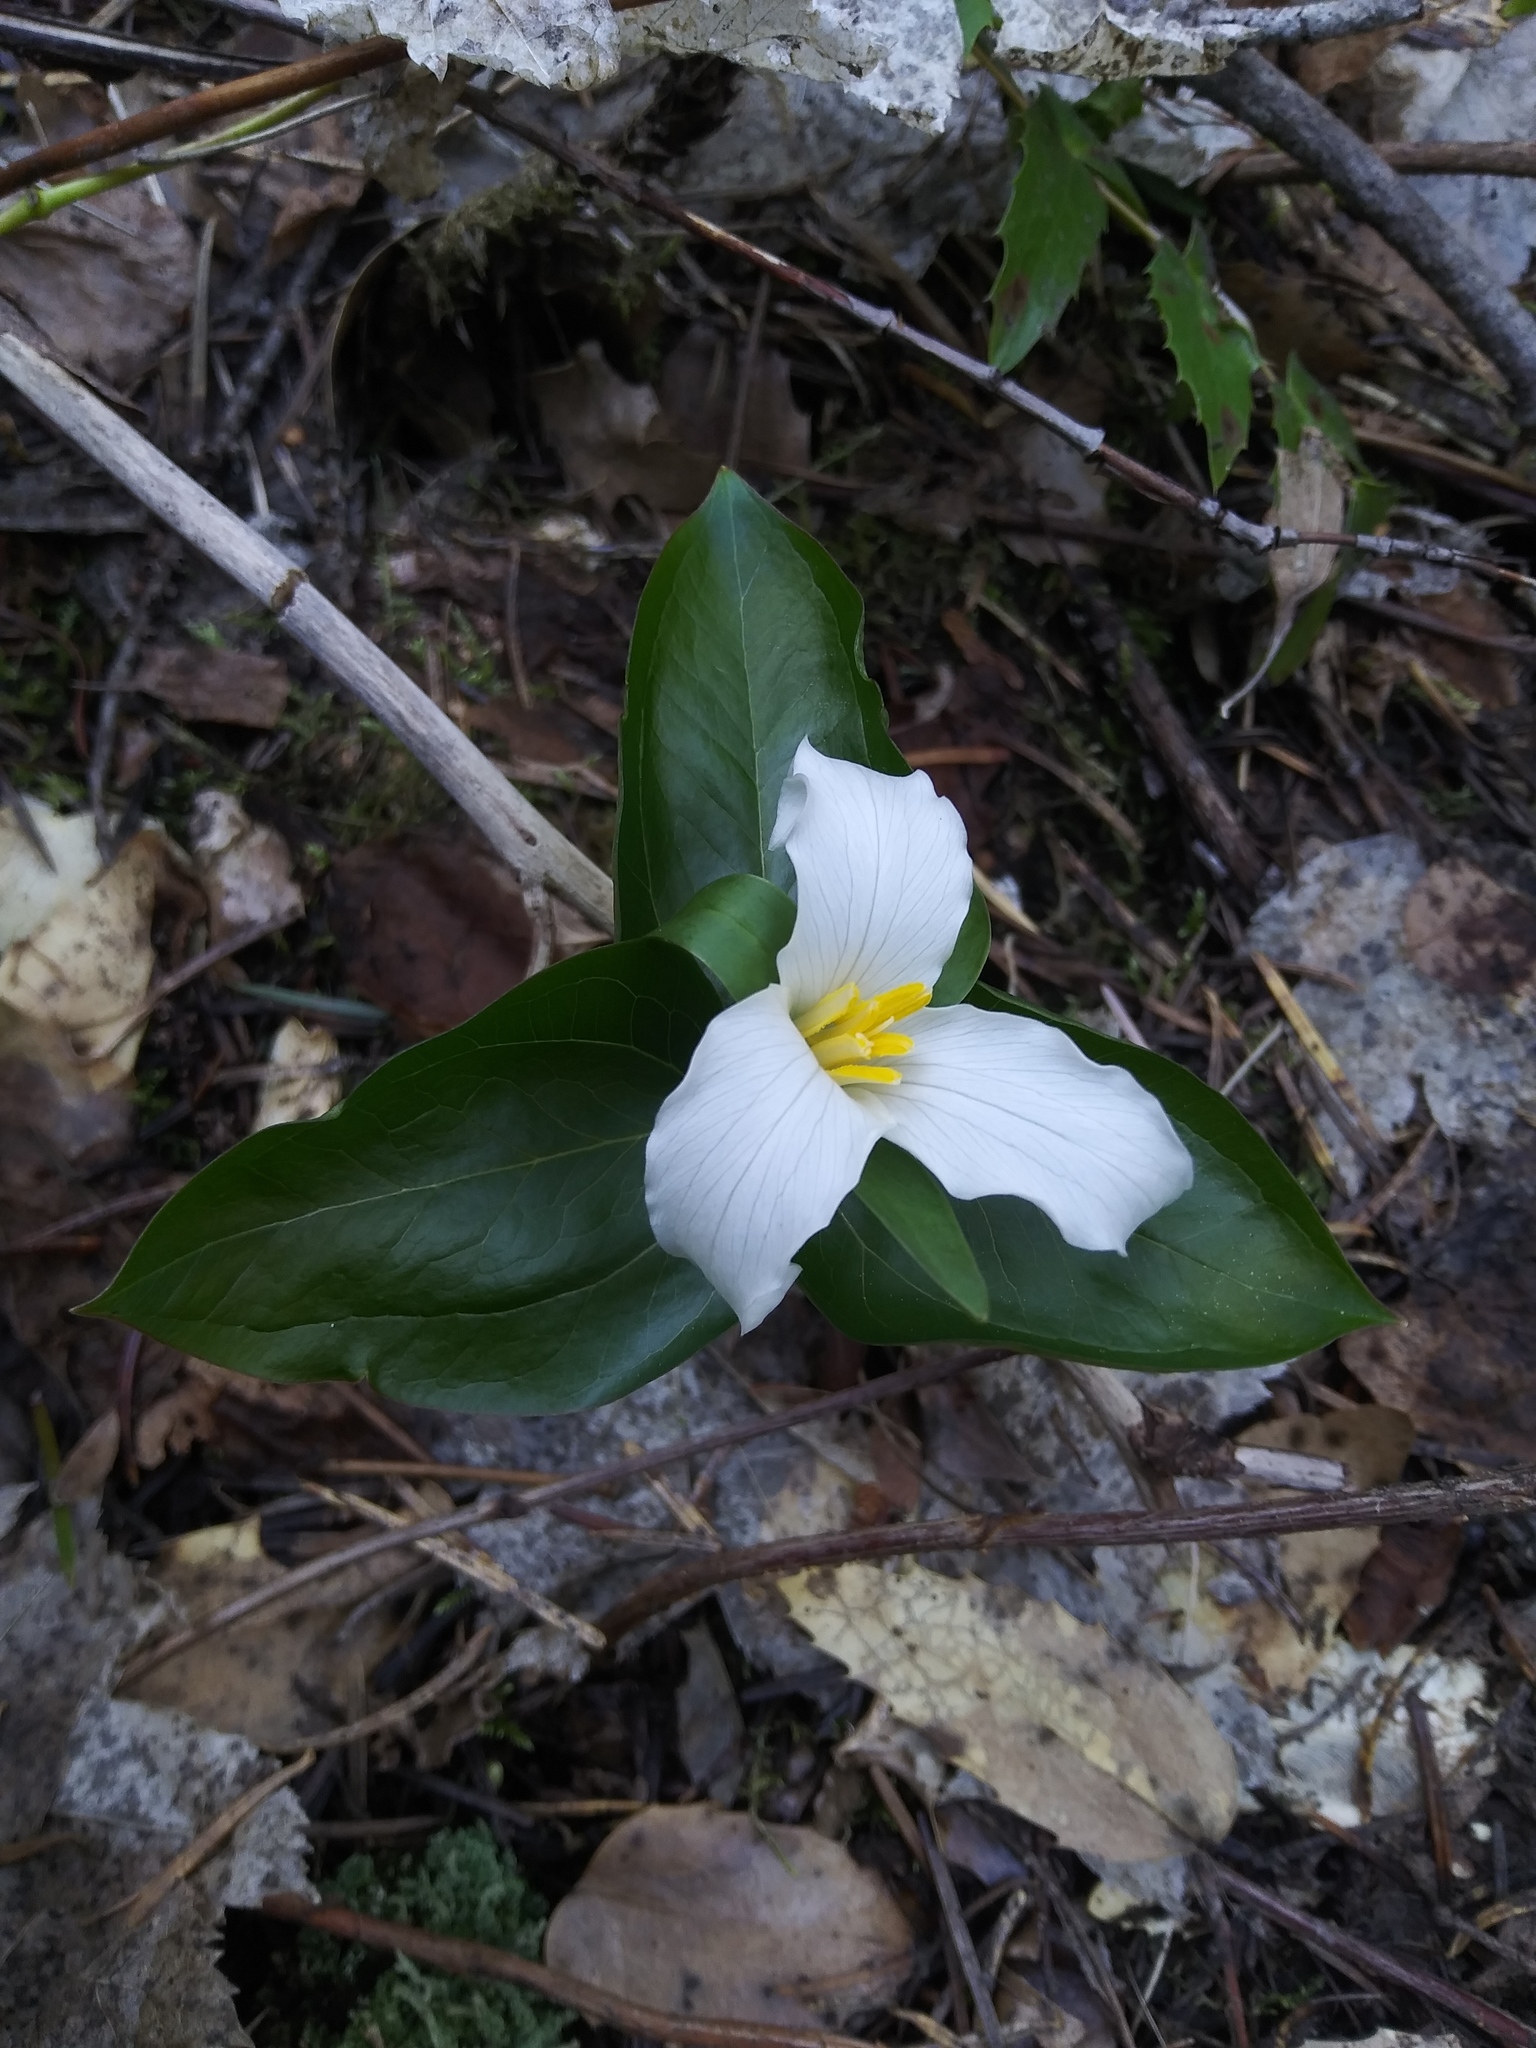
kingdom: Plantae
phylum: Tracheophyta
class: Liliopsida
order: Liliales
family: Melanthiaceae
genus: Trillium
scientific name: Trillium ovatum
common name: Pacific trillium
